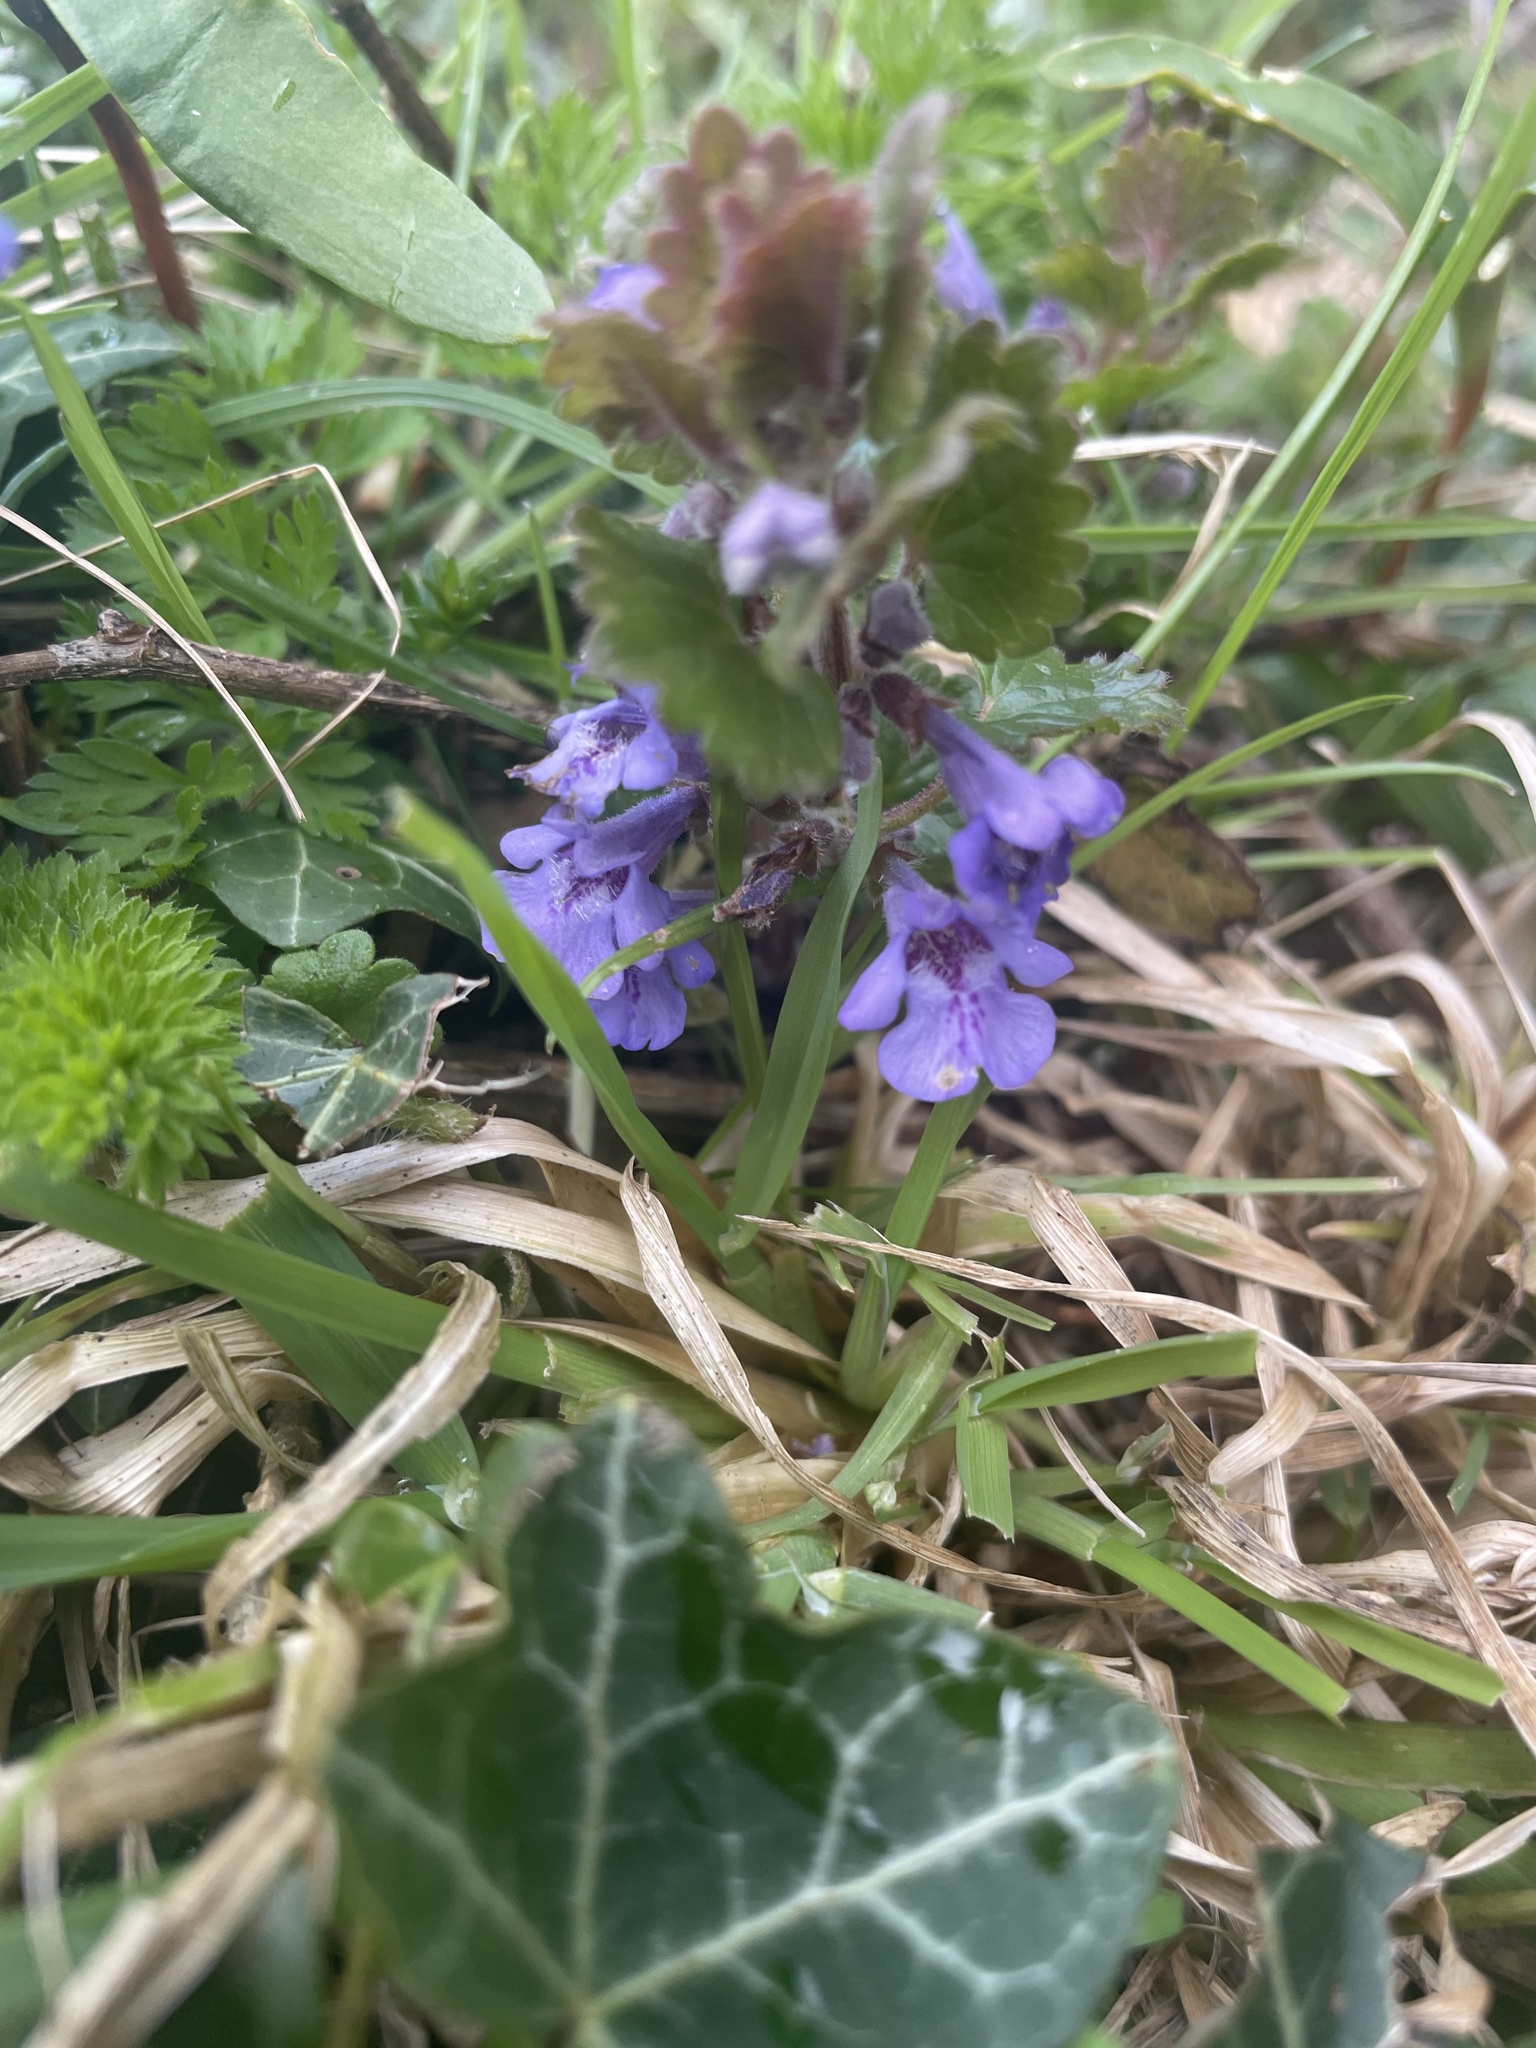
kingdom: Plantae
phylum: Tracheophyta
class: Magnoliopsida
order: Lamiales
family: Lamiaceae
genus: Glechoma
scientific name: Glechoma hederacea
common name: Ground ivy
